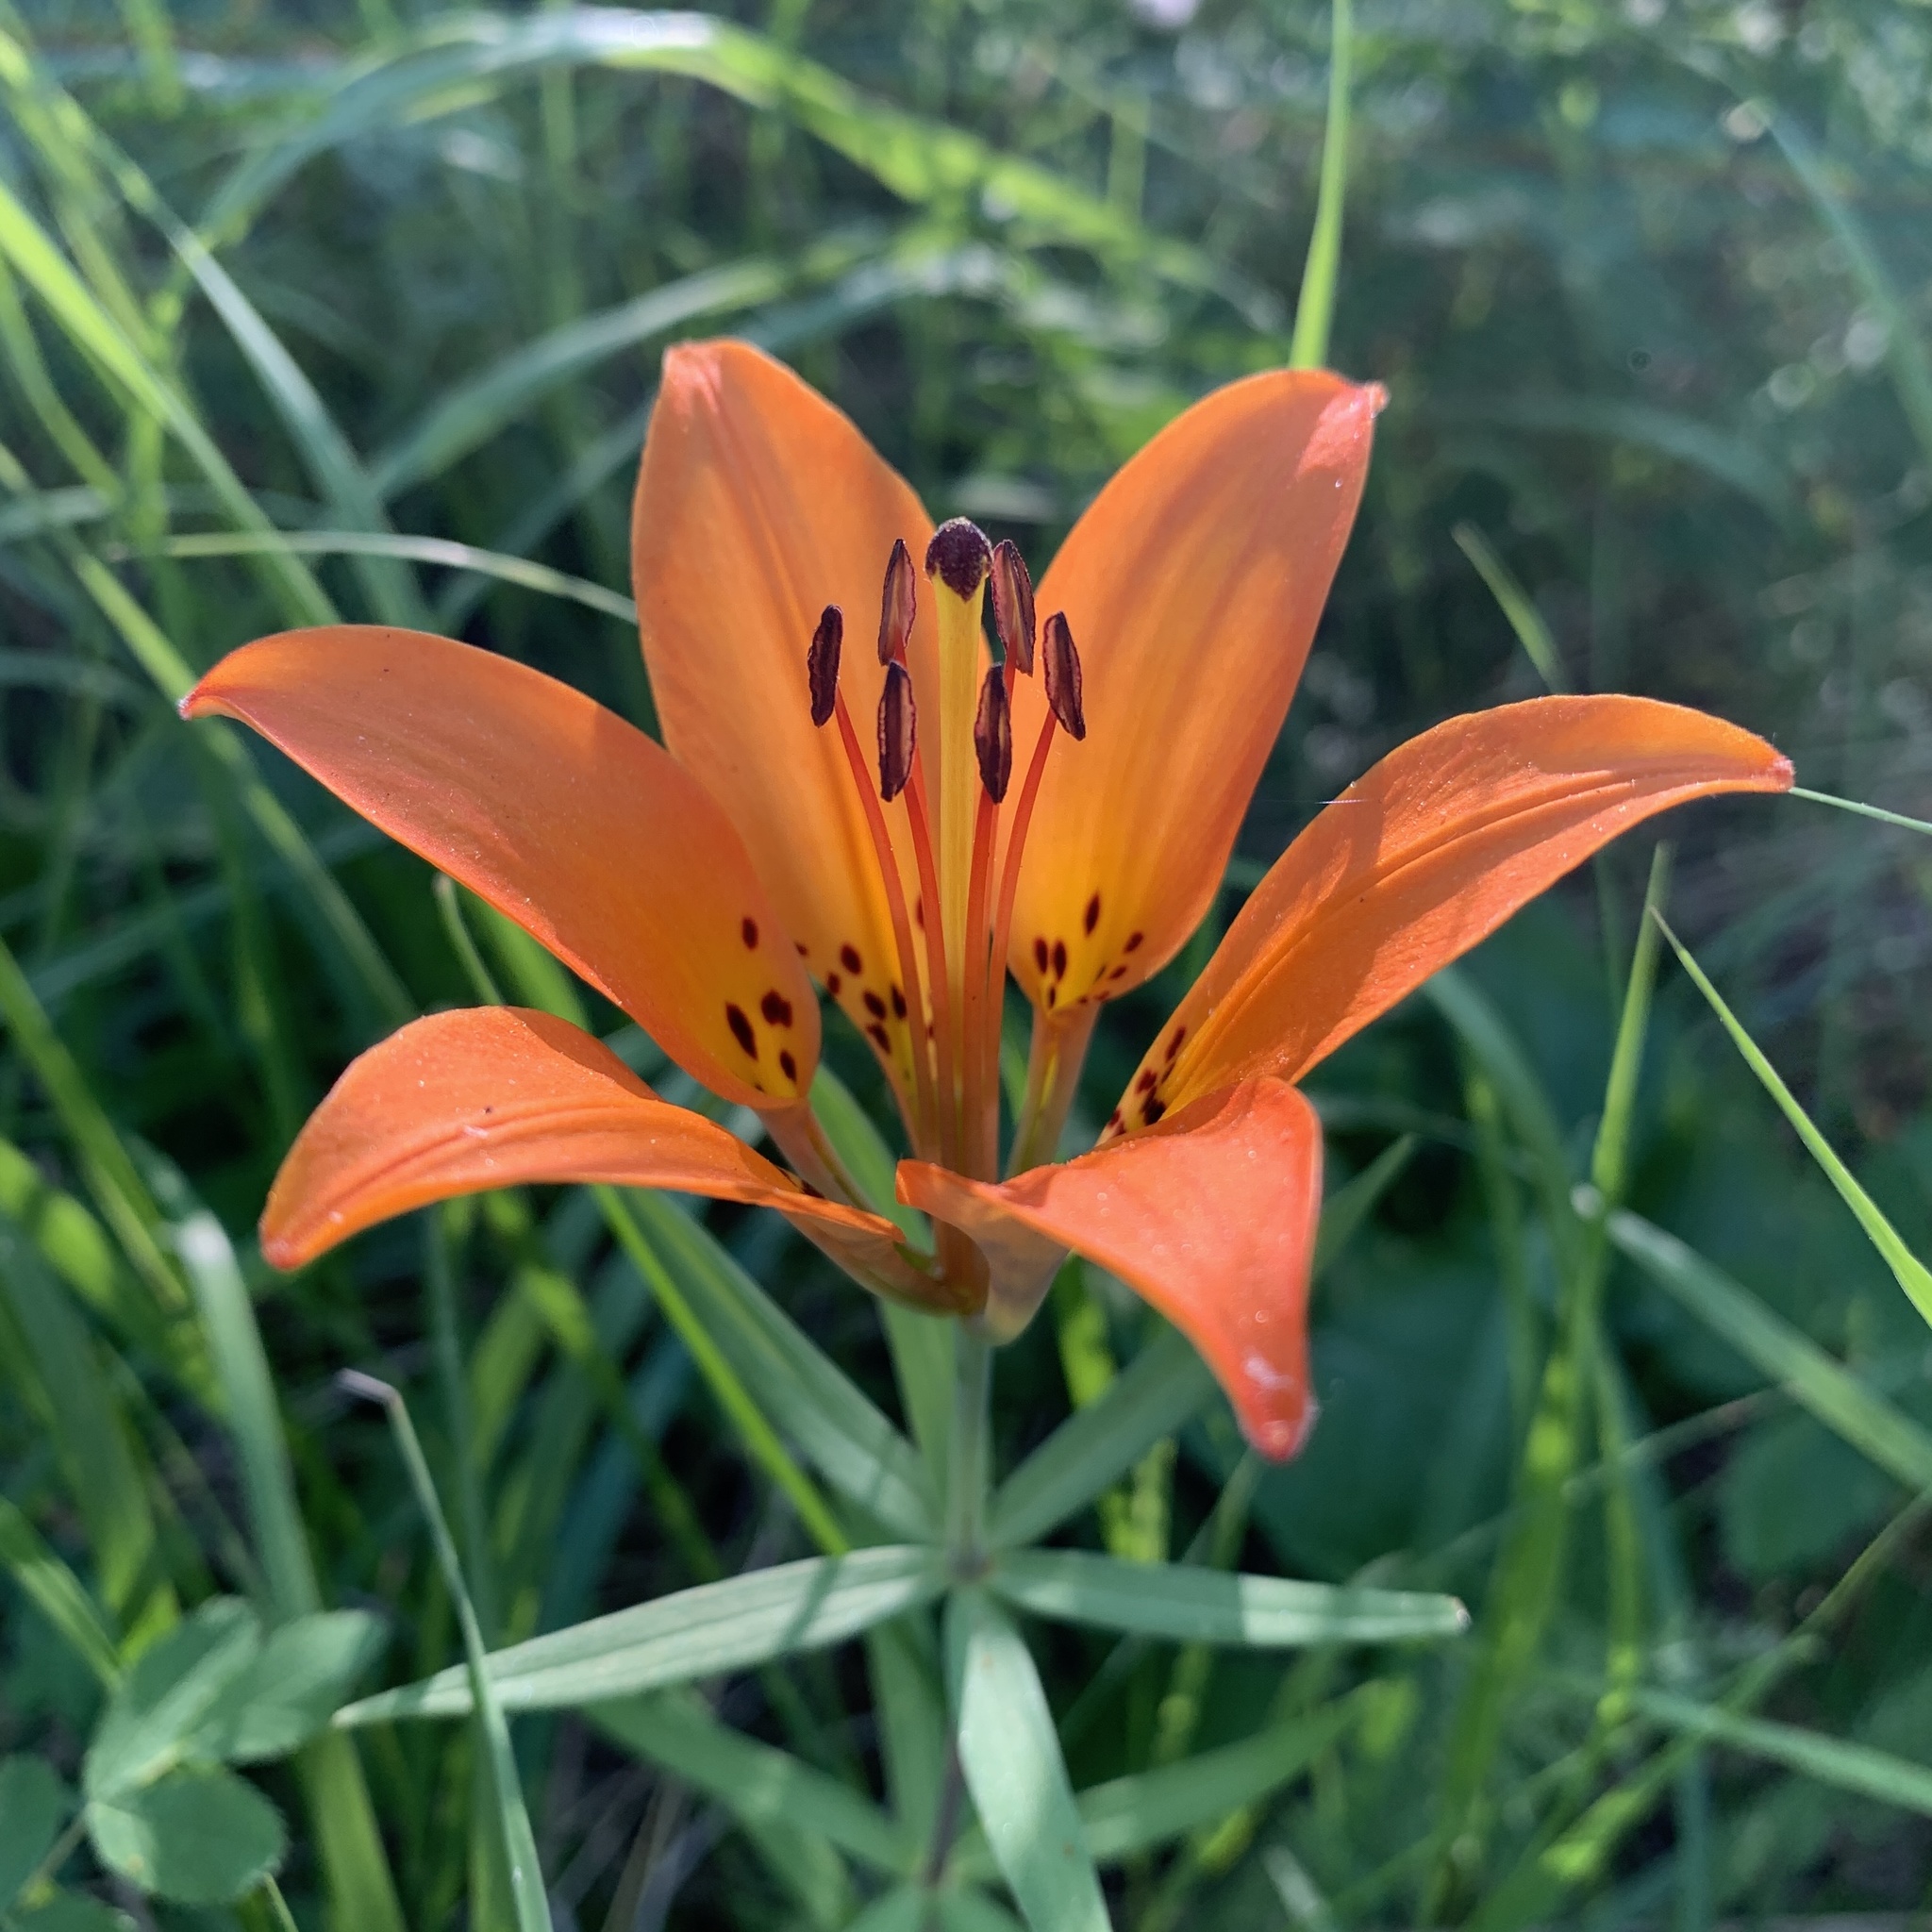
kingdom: Plantae
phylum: Tracheophyta
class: Liliopsida
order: Liliales
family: Liliaceae
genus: Lilium
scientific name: Lilium philadelphicum
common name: Red lily
